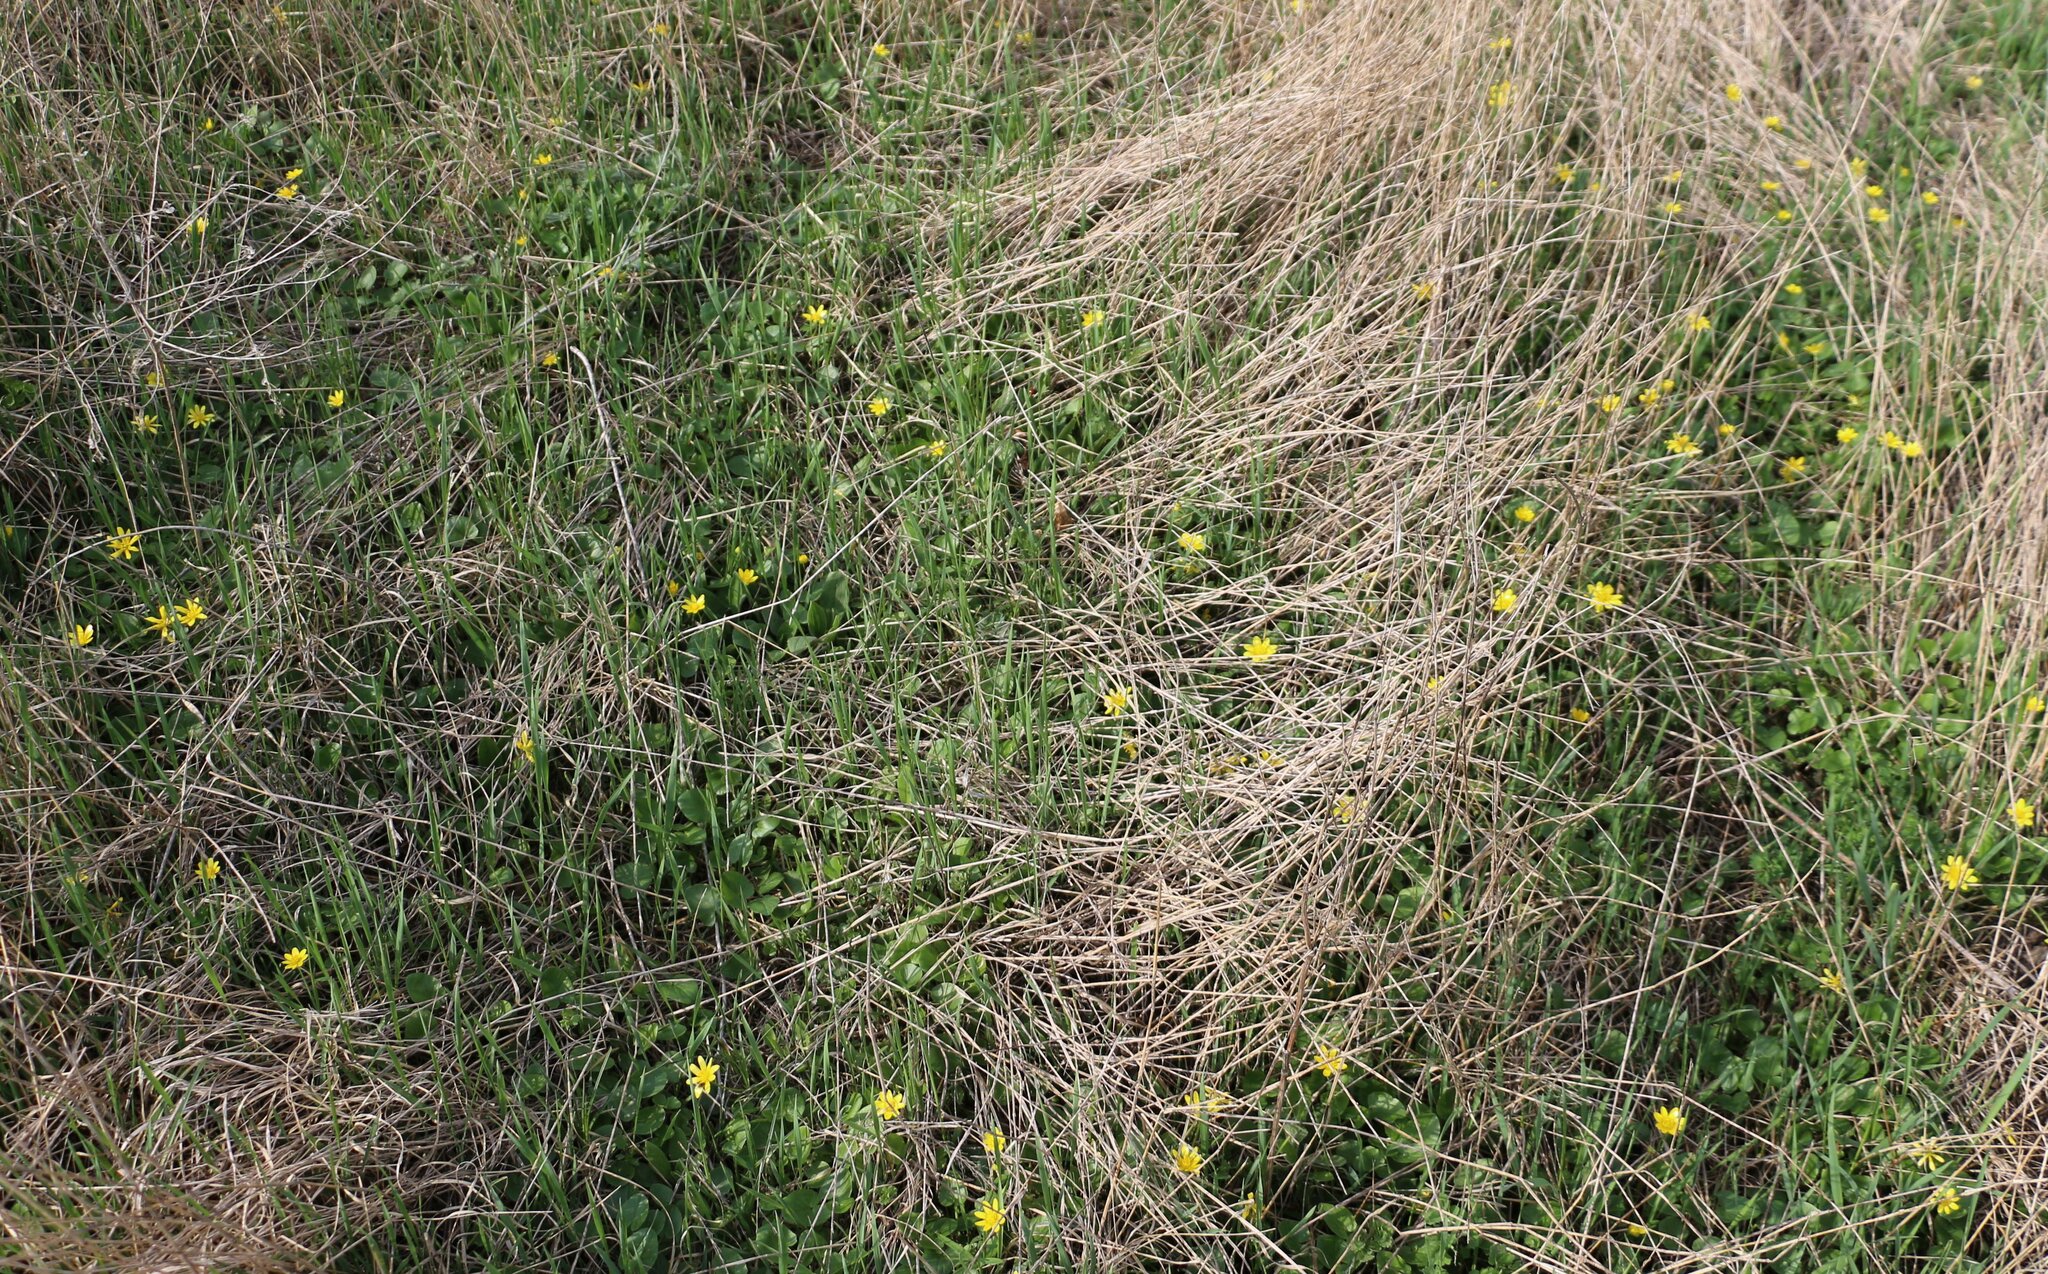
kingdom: Plantae
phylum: Tracheophyta
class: Magnoliopsida
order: Ranunculales
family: Ranunculaceae
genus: Ficaria
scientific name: Ficaria verna
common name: Lesser celandine
